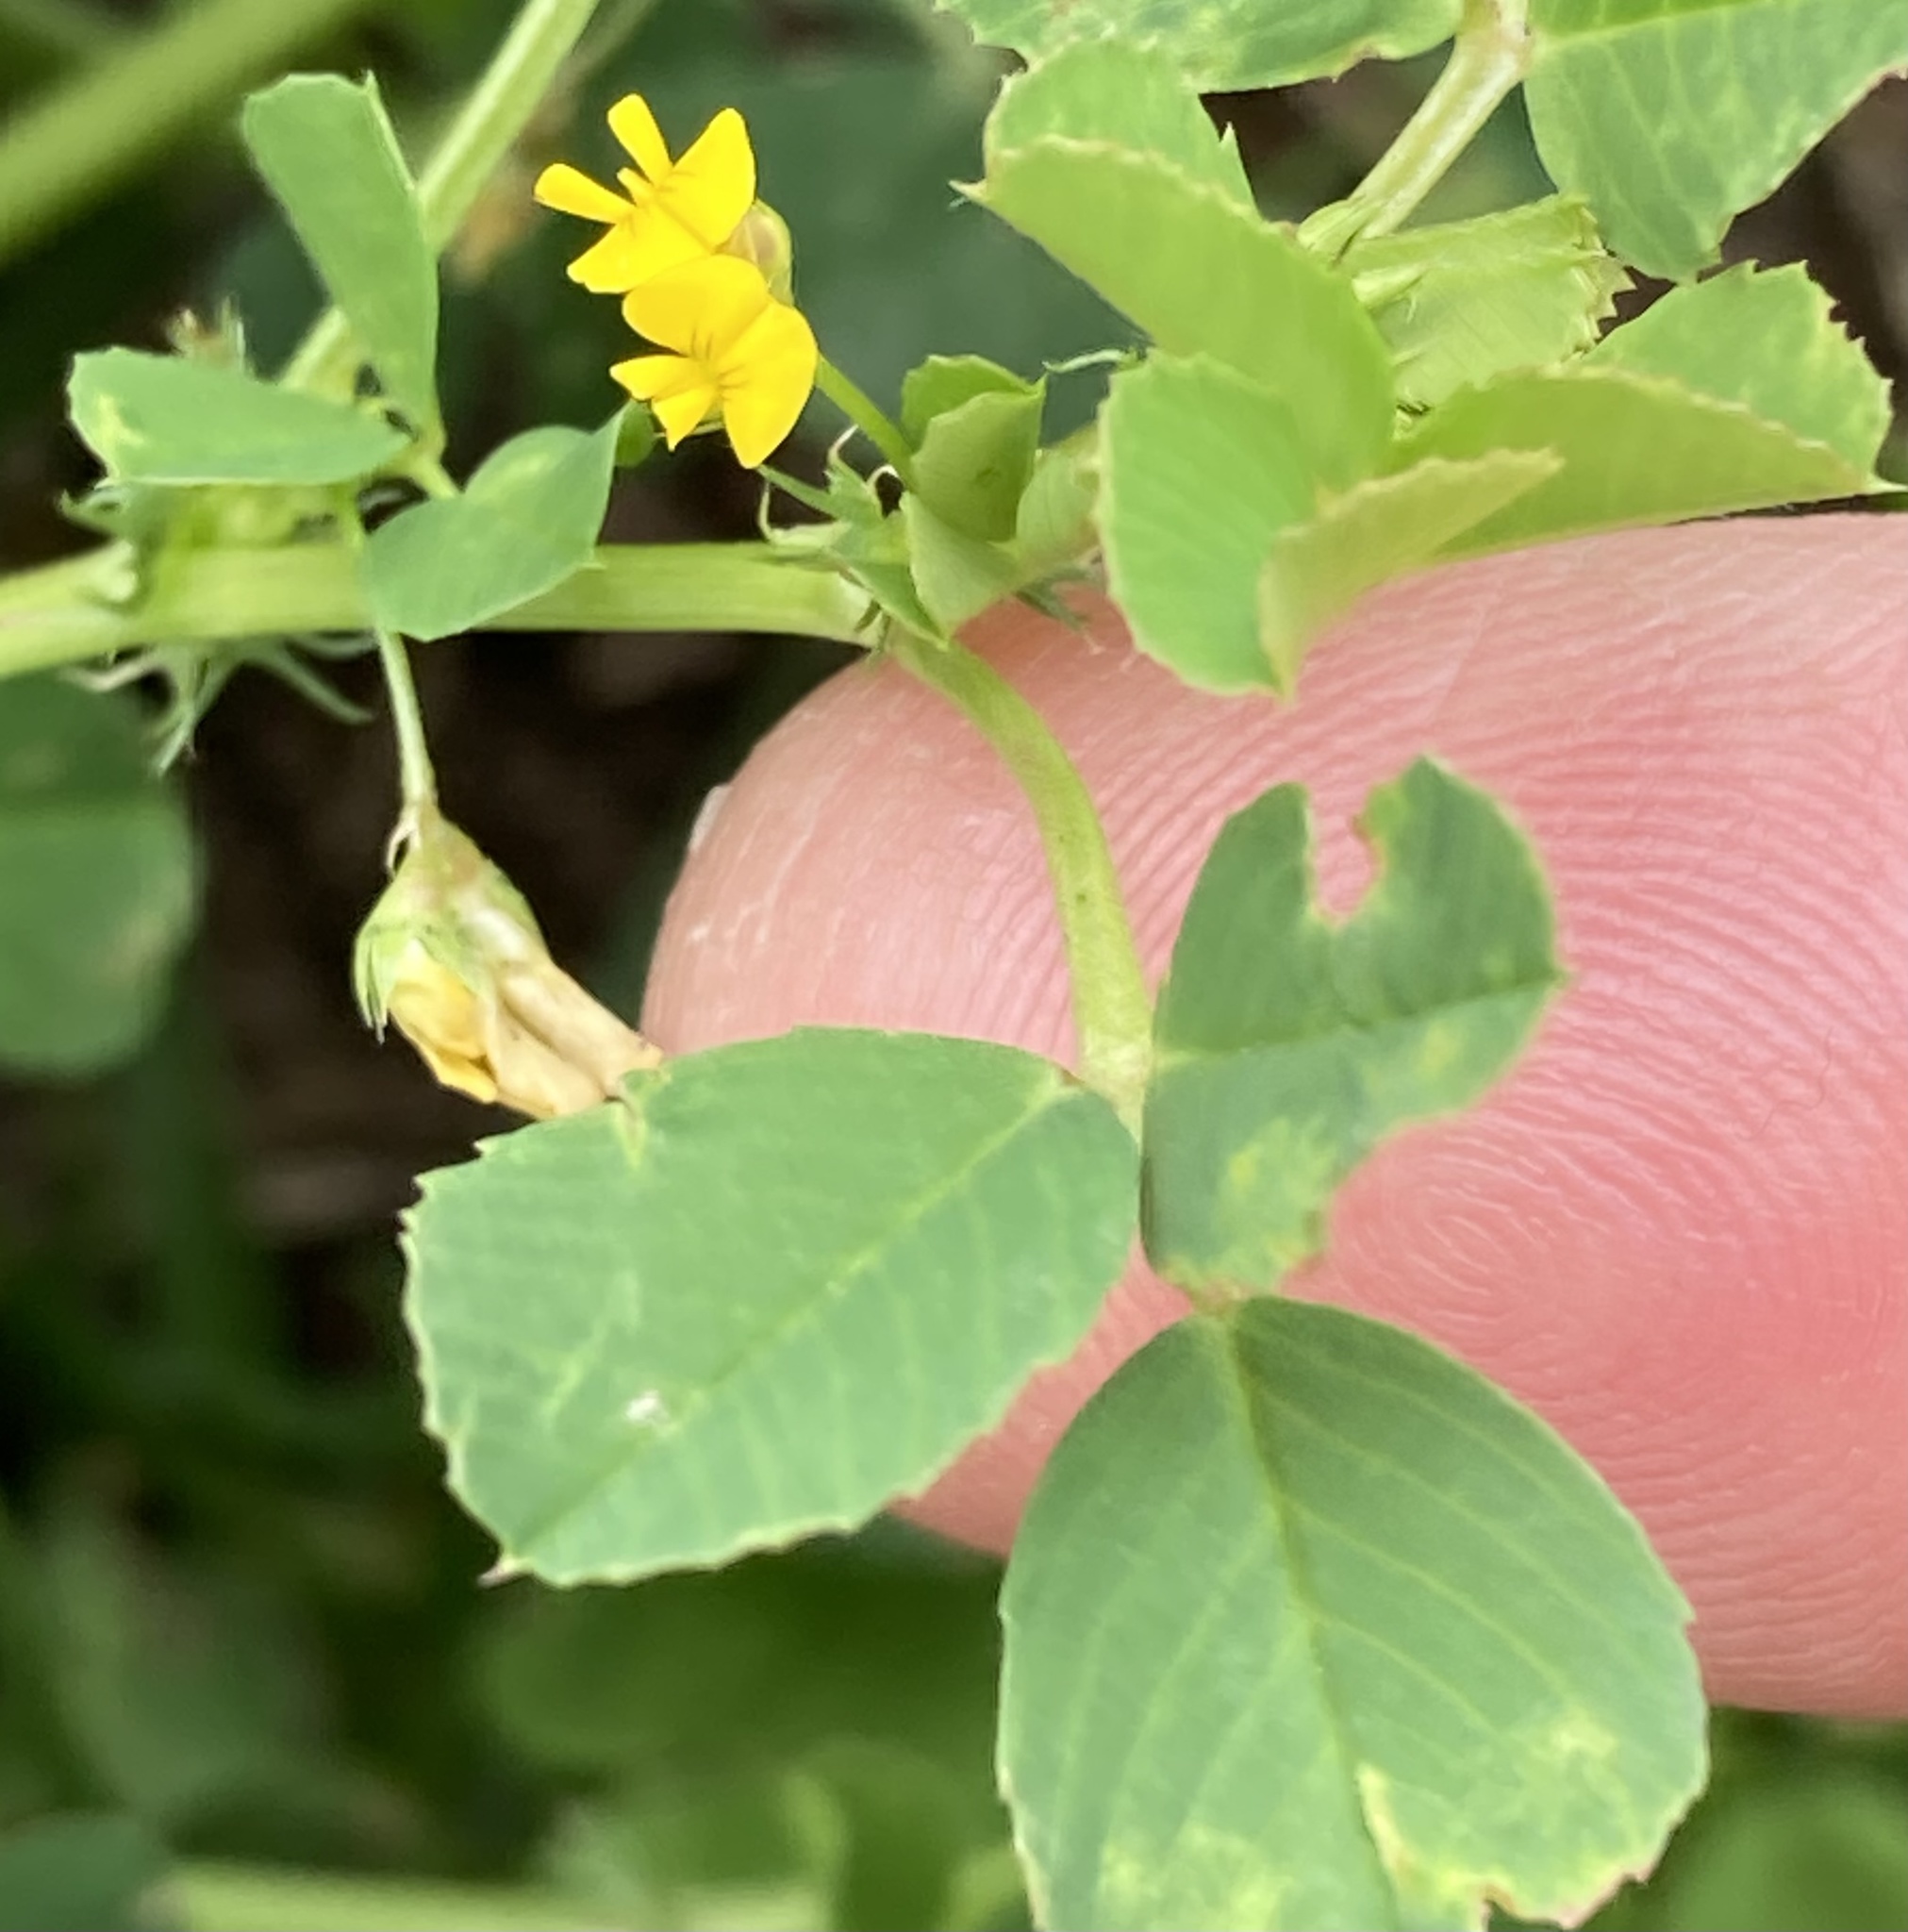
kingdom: Plantae
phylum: Tracheophyta
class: Magnoliopsida
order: Fabales
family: Fabaceae
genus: Medicago
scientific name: Medicago polymorpha
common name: Burclover
